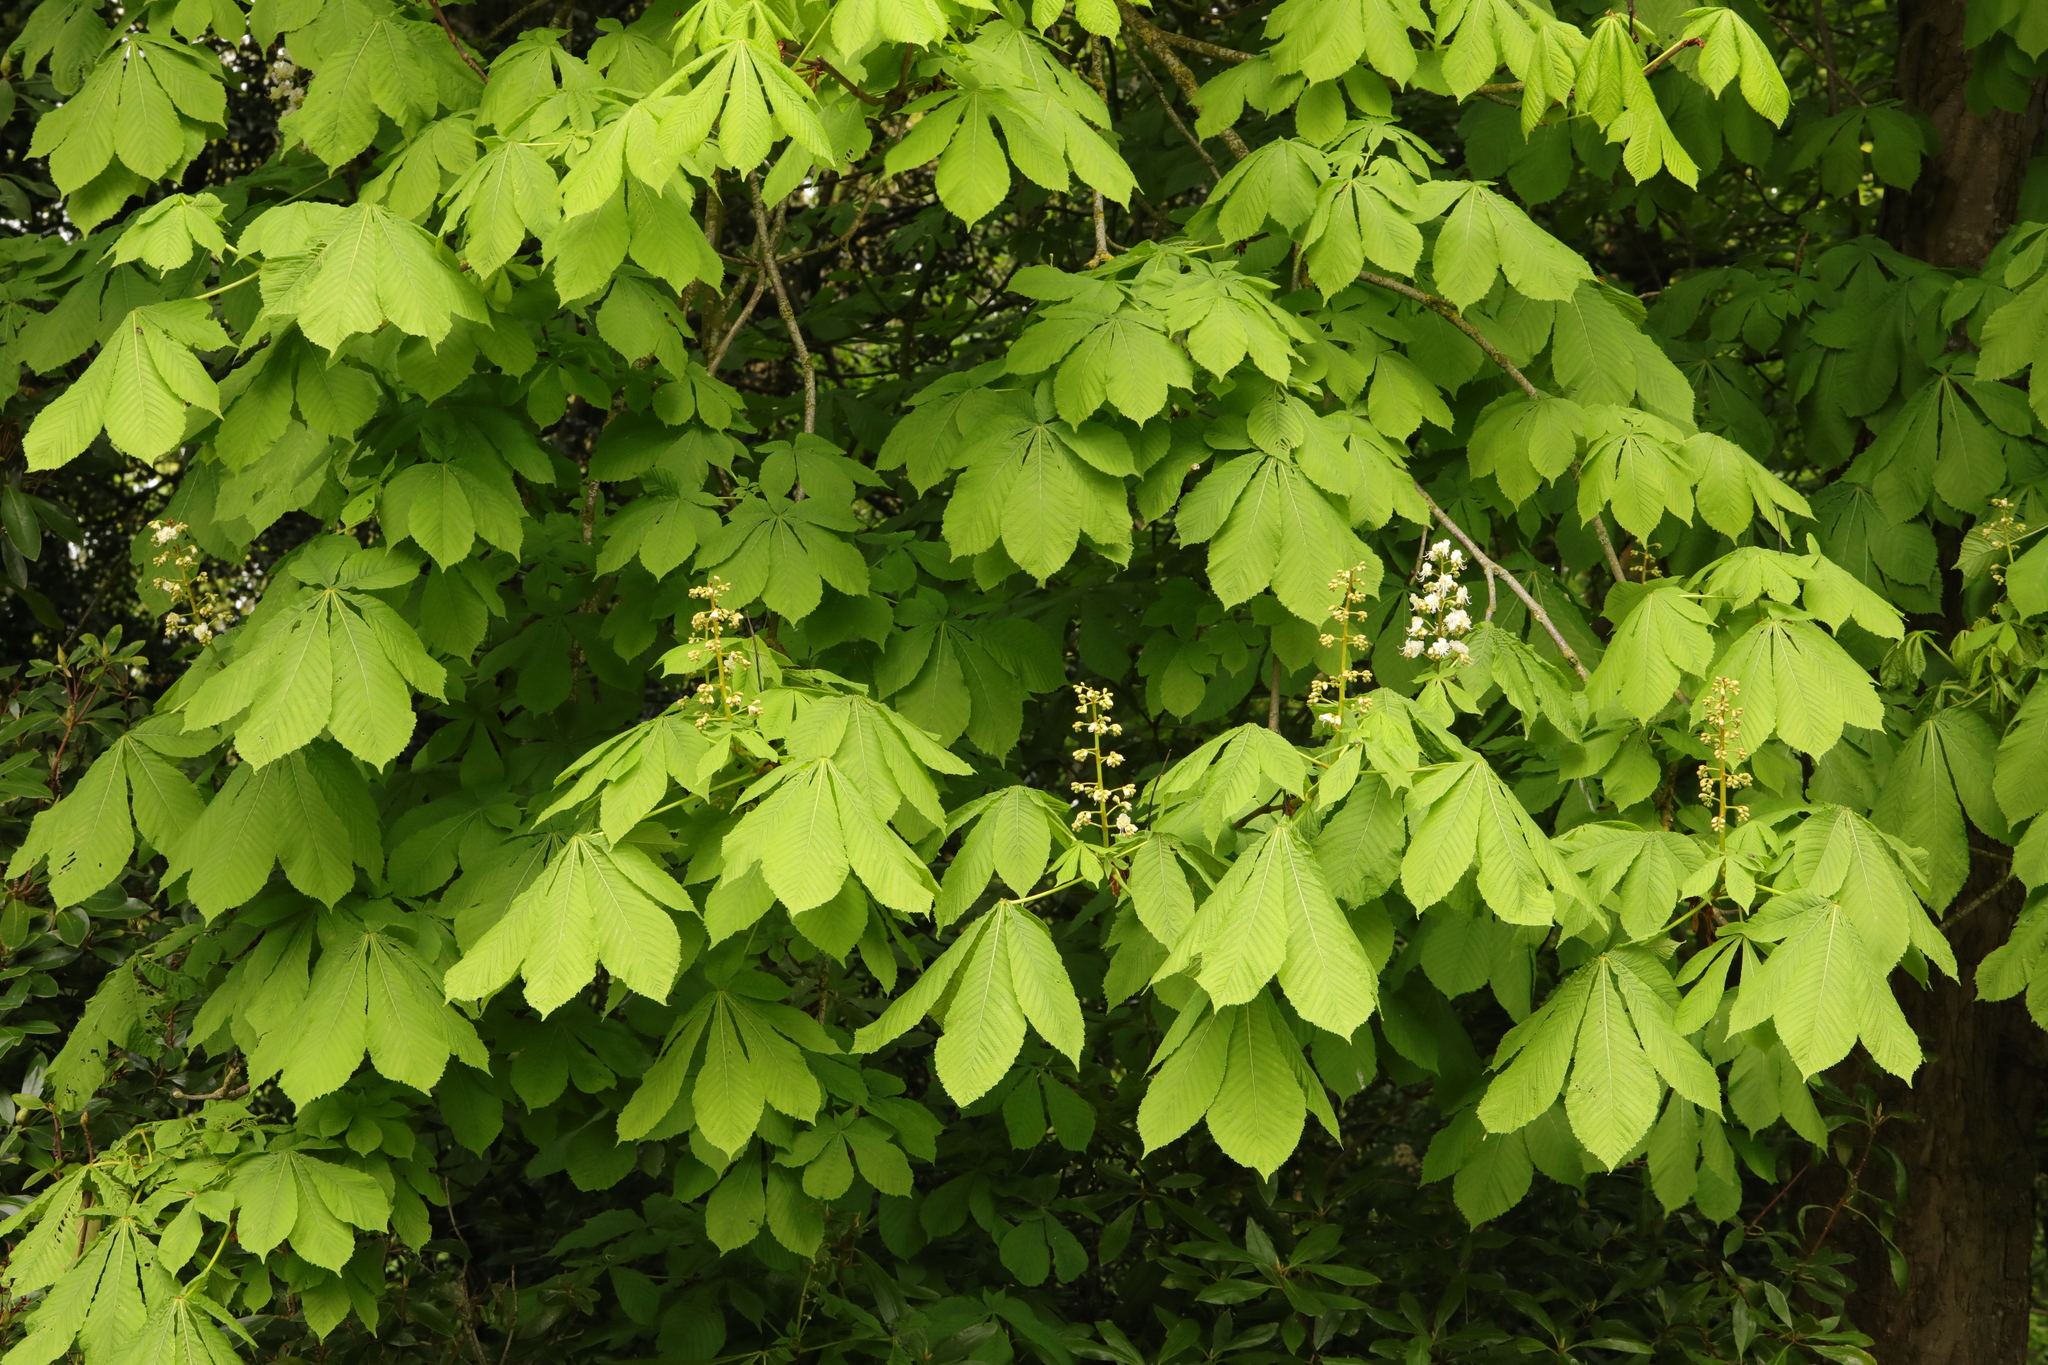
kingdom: Plantae
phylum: Tracheophyta
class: Magnoliopsida
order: Sapindales
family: Sapindaceae
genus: Aesculus
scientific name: Aesculus hippocastanum
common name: Horse-chestnut
